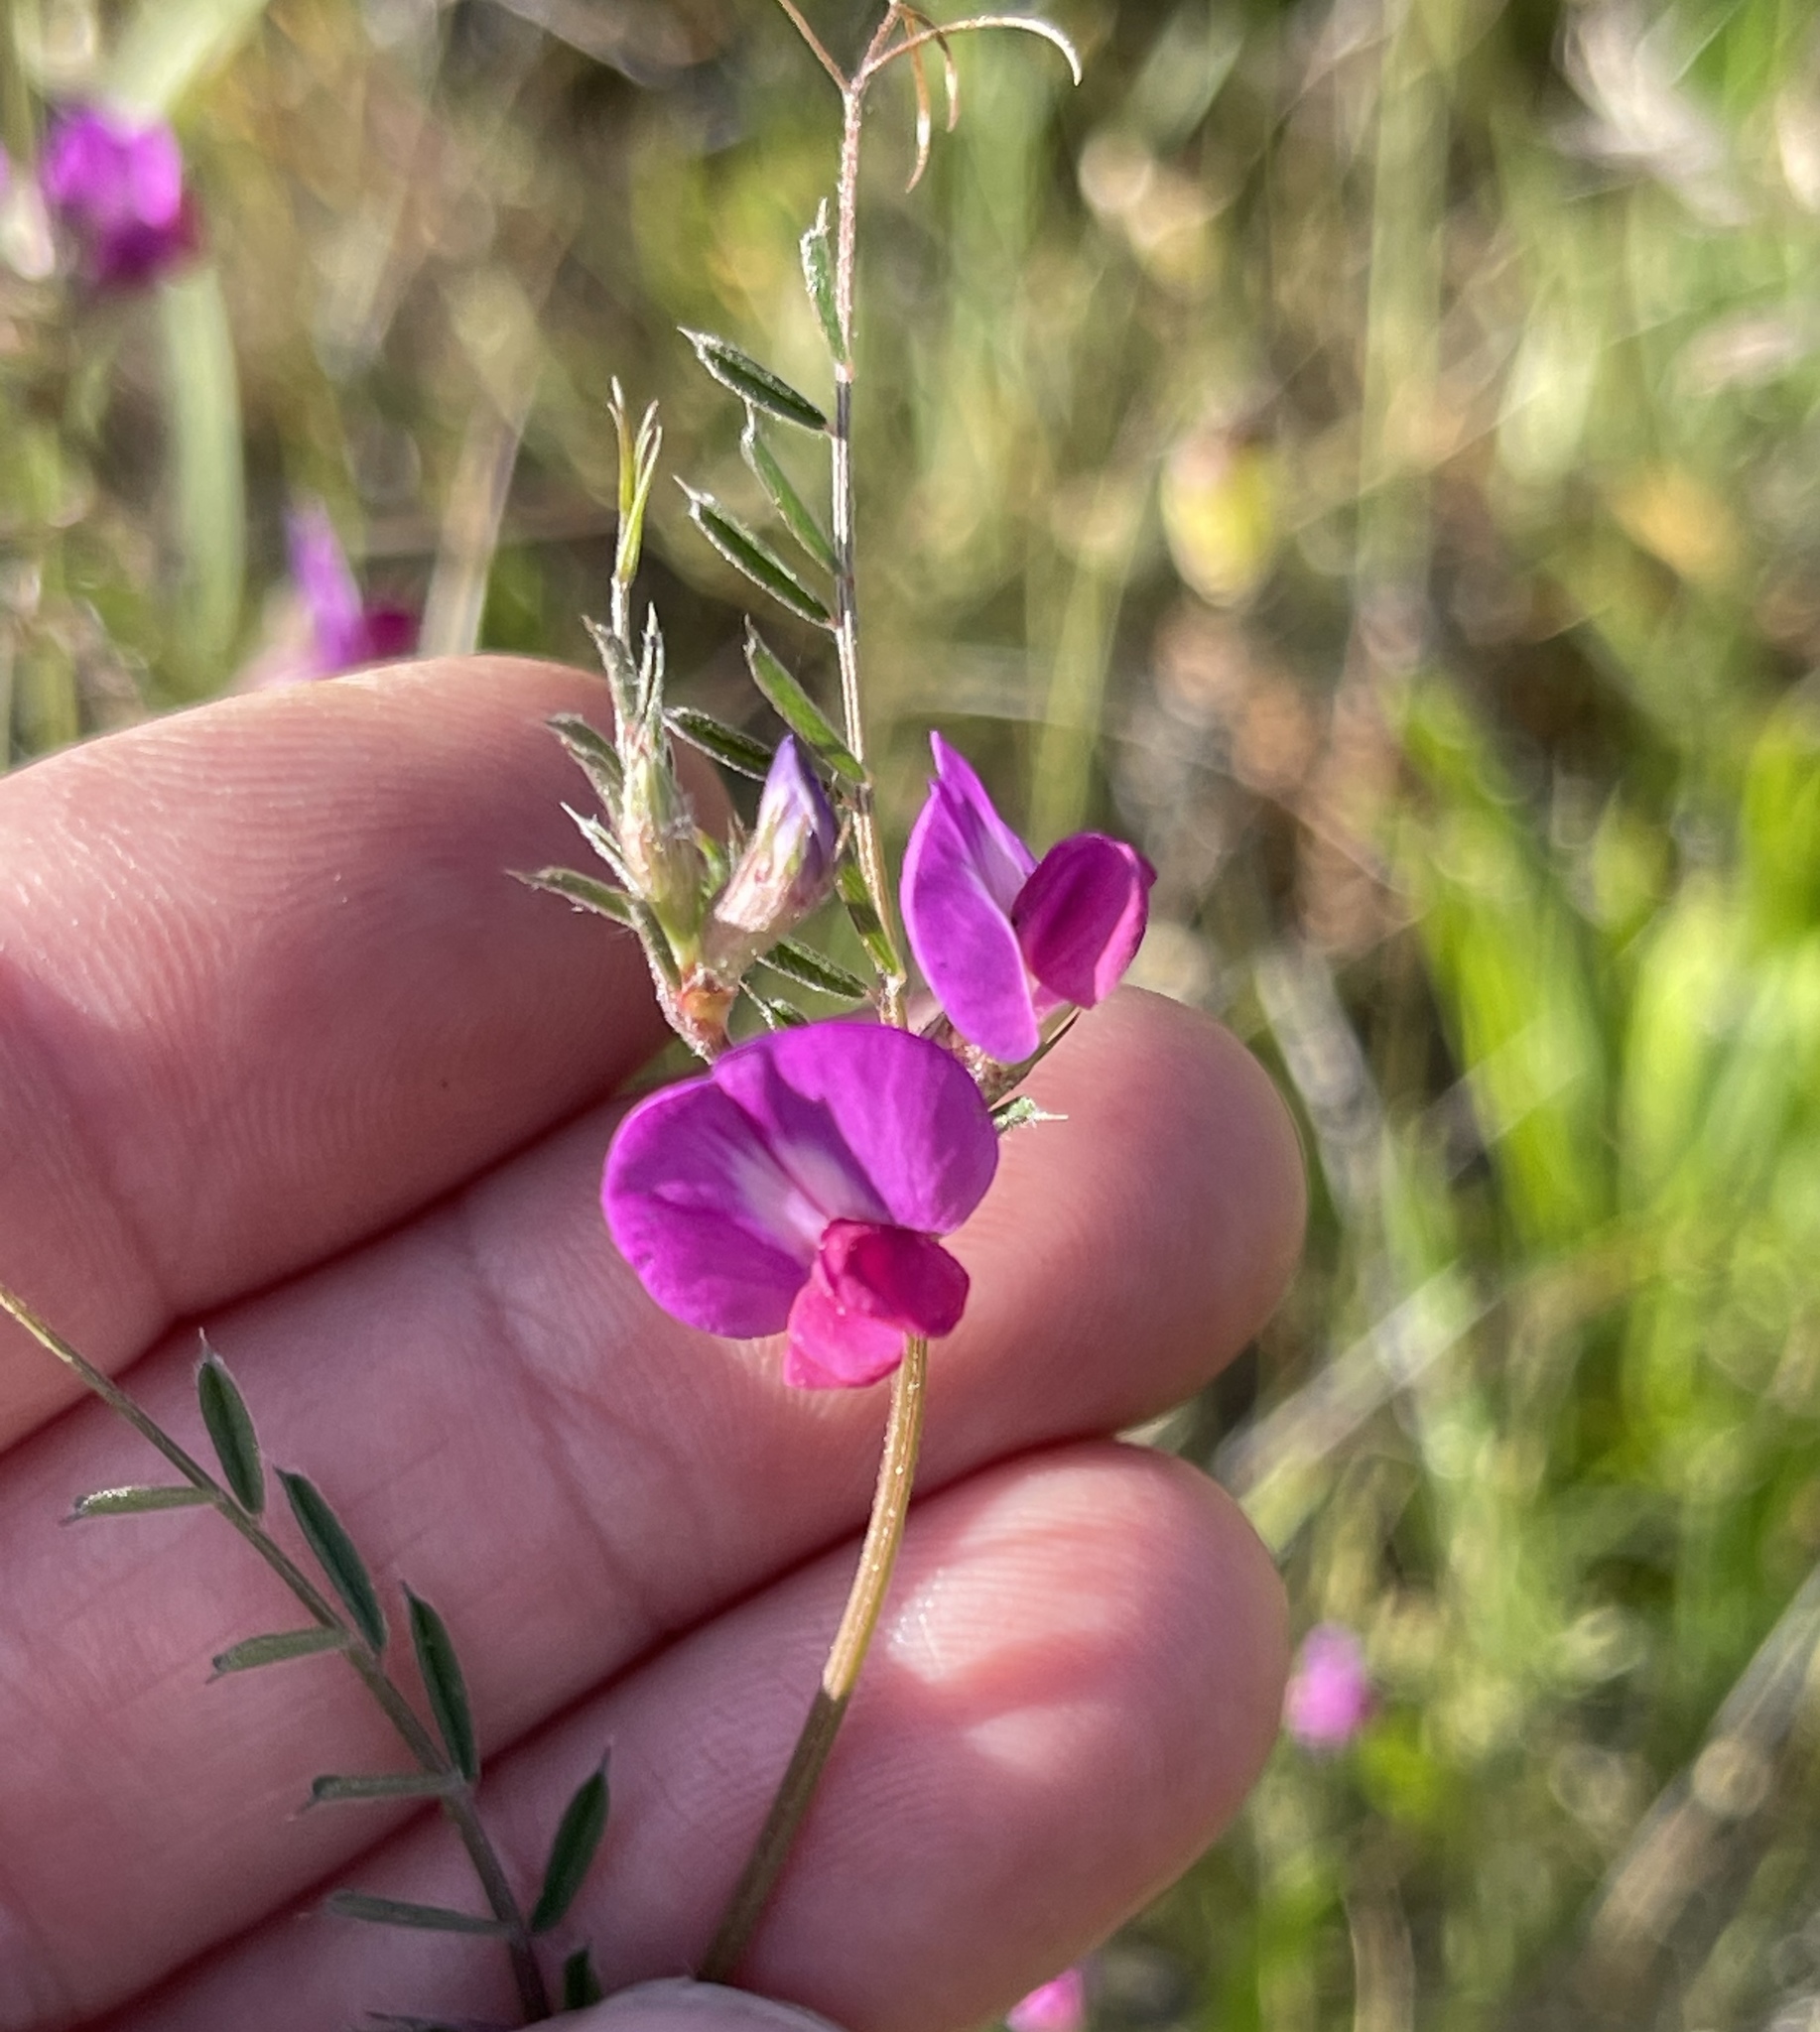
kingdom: Plantae
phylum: Tracheophyta
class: Magnoliopsida
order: Fabales
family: Fabaceae
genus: Vicia
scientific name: Vicia sativa
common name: Garden vetch
